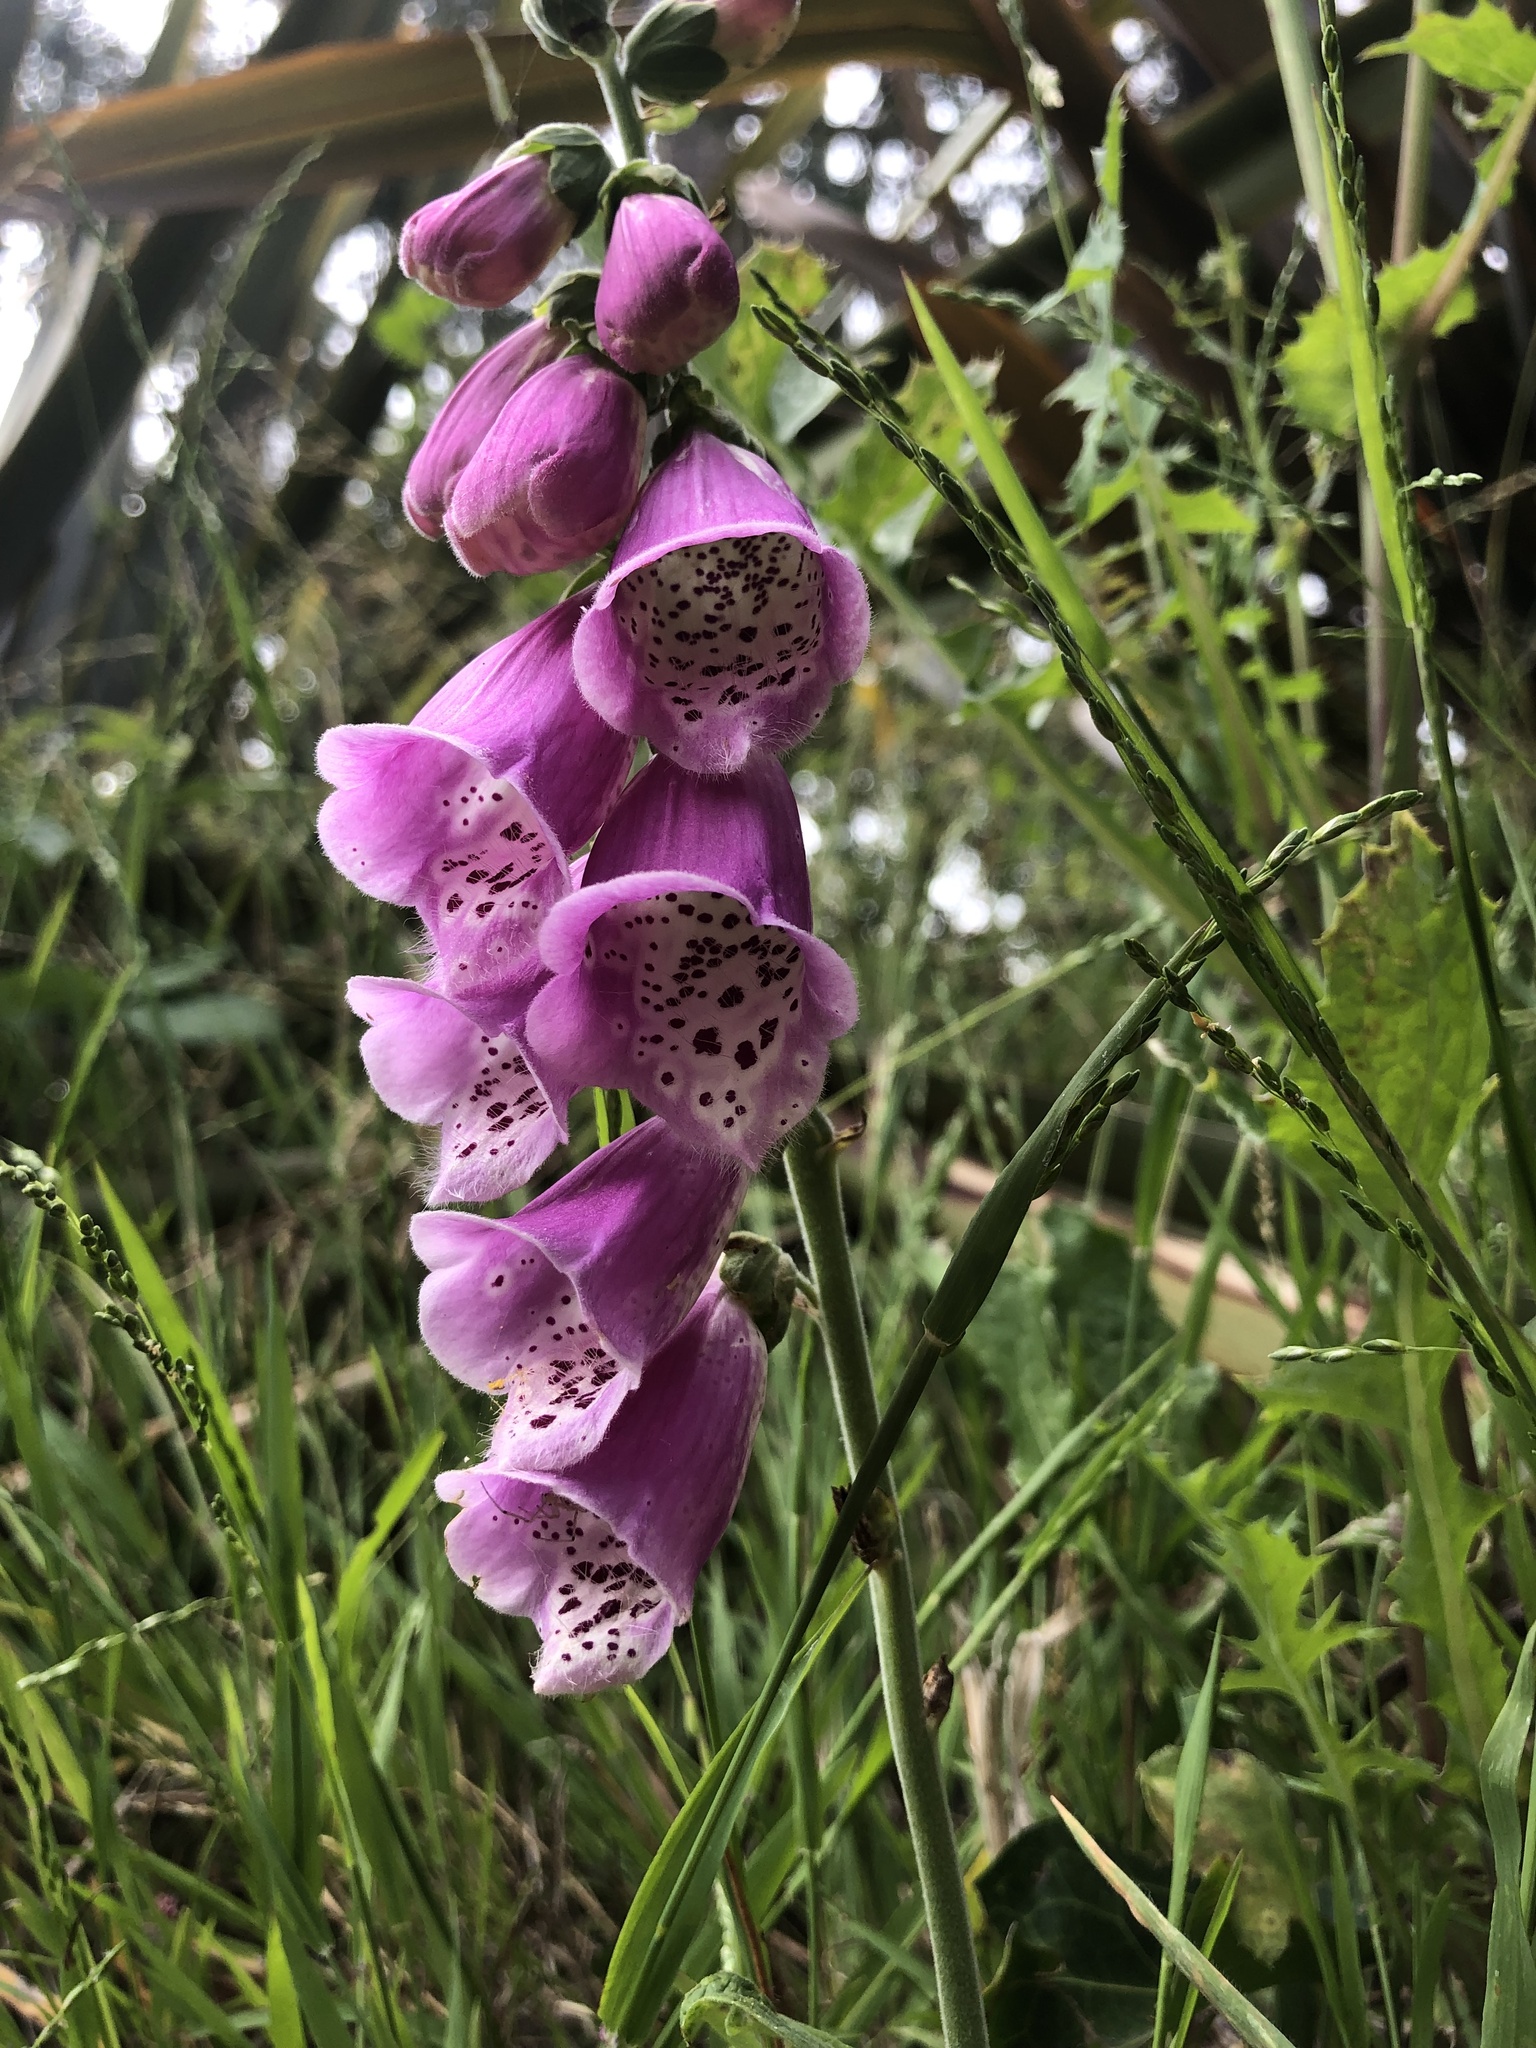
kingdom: Plantae
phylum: Tracheophyta
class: Magnoliopsida
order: Lamiales
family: Plantaginaceae
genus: Digitalis
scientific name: Digitalis purpurea
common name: Foxglove
